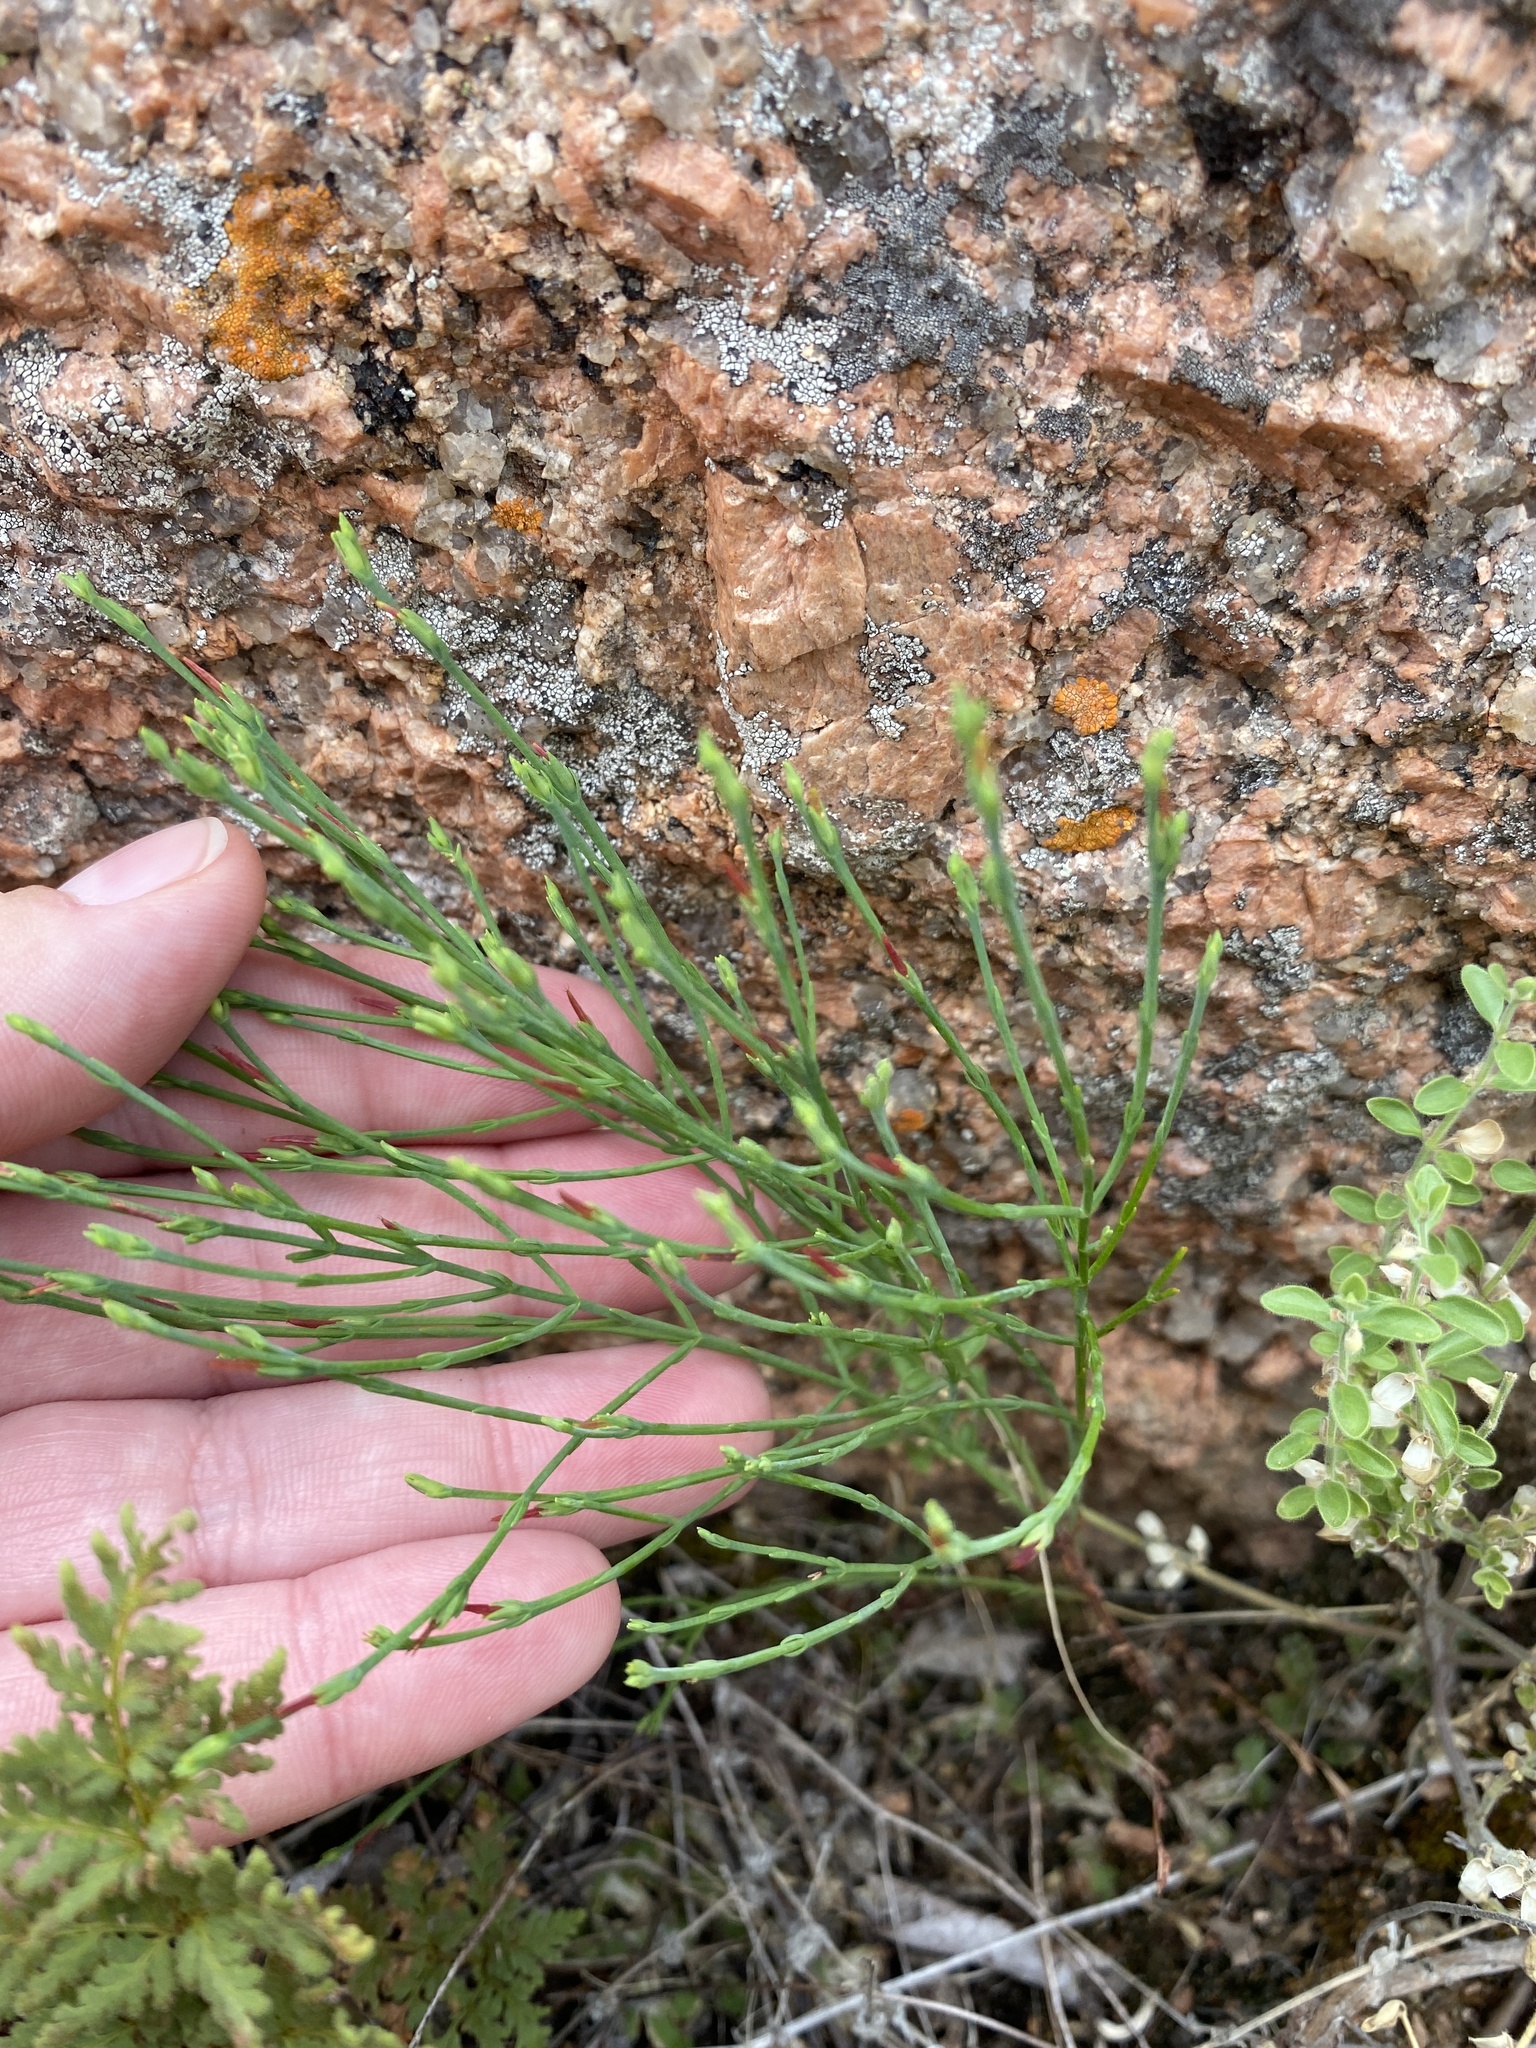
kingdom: Plantae
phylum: Tracheophyta
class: Magnoliopsida
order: Malpighiales
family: Hypericaceae
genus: Hypericum
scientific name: Hypericum gentianoides
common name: Gentian-leaved st. john's-wort
